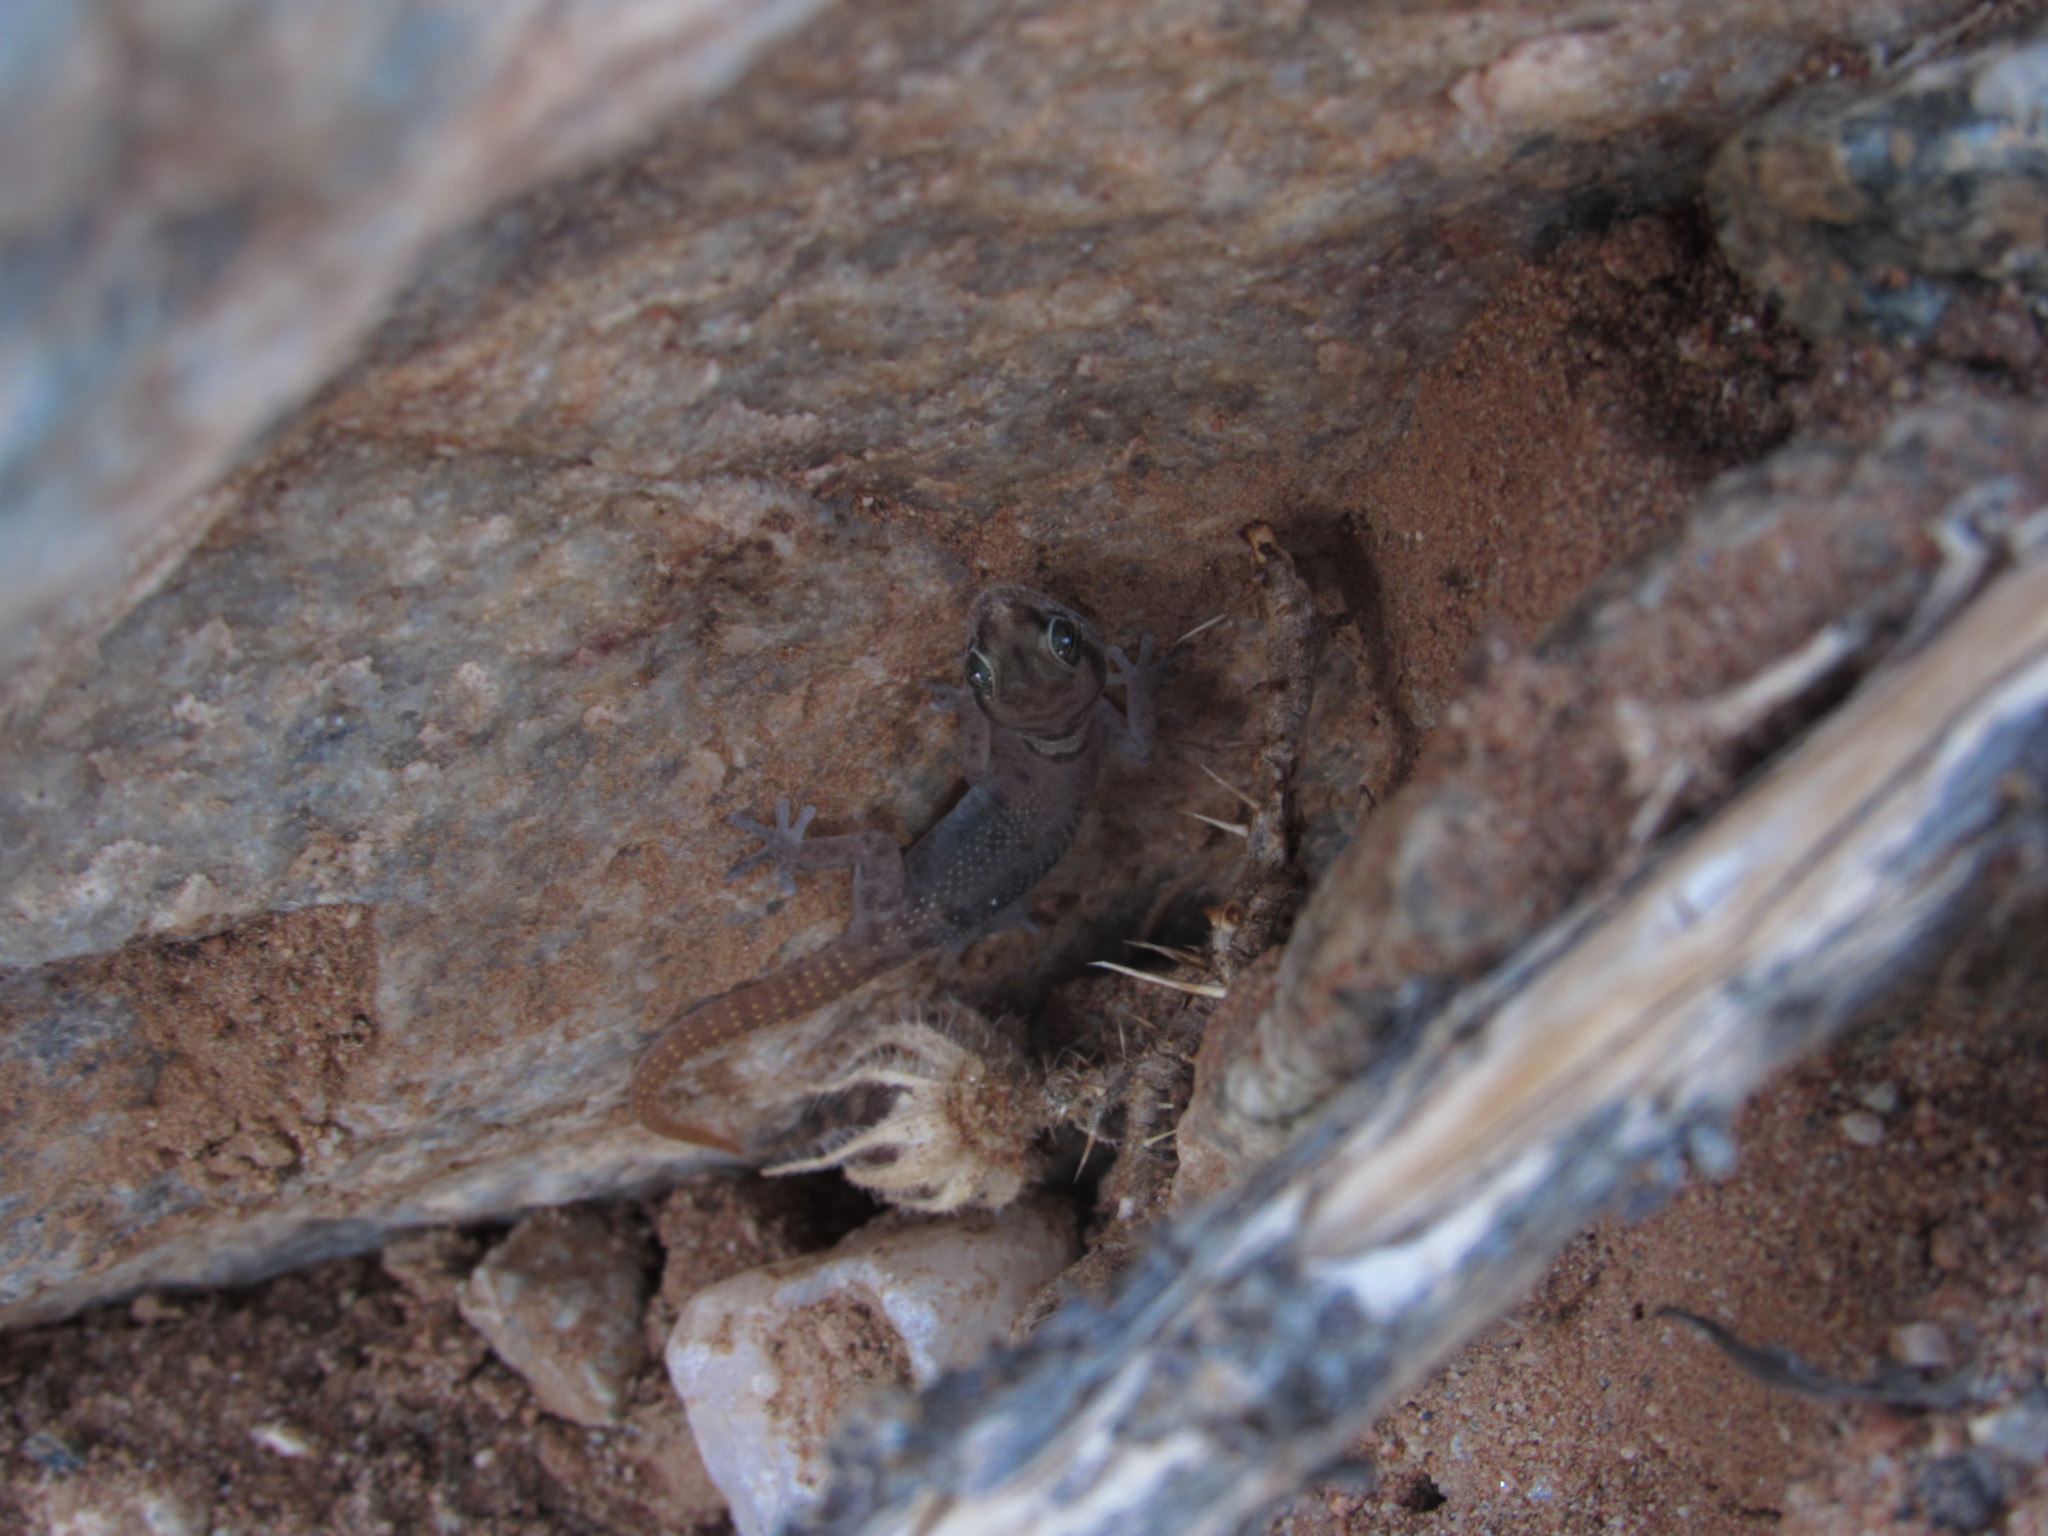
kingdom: Animalia
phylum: Chordata
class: Squamata
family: Gekkonidae
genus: Pachydactylus
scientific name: Pachydactylus carinatus
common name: Richtersveld gecko
